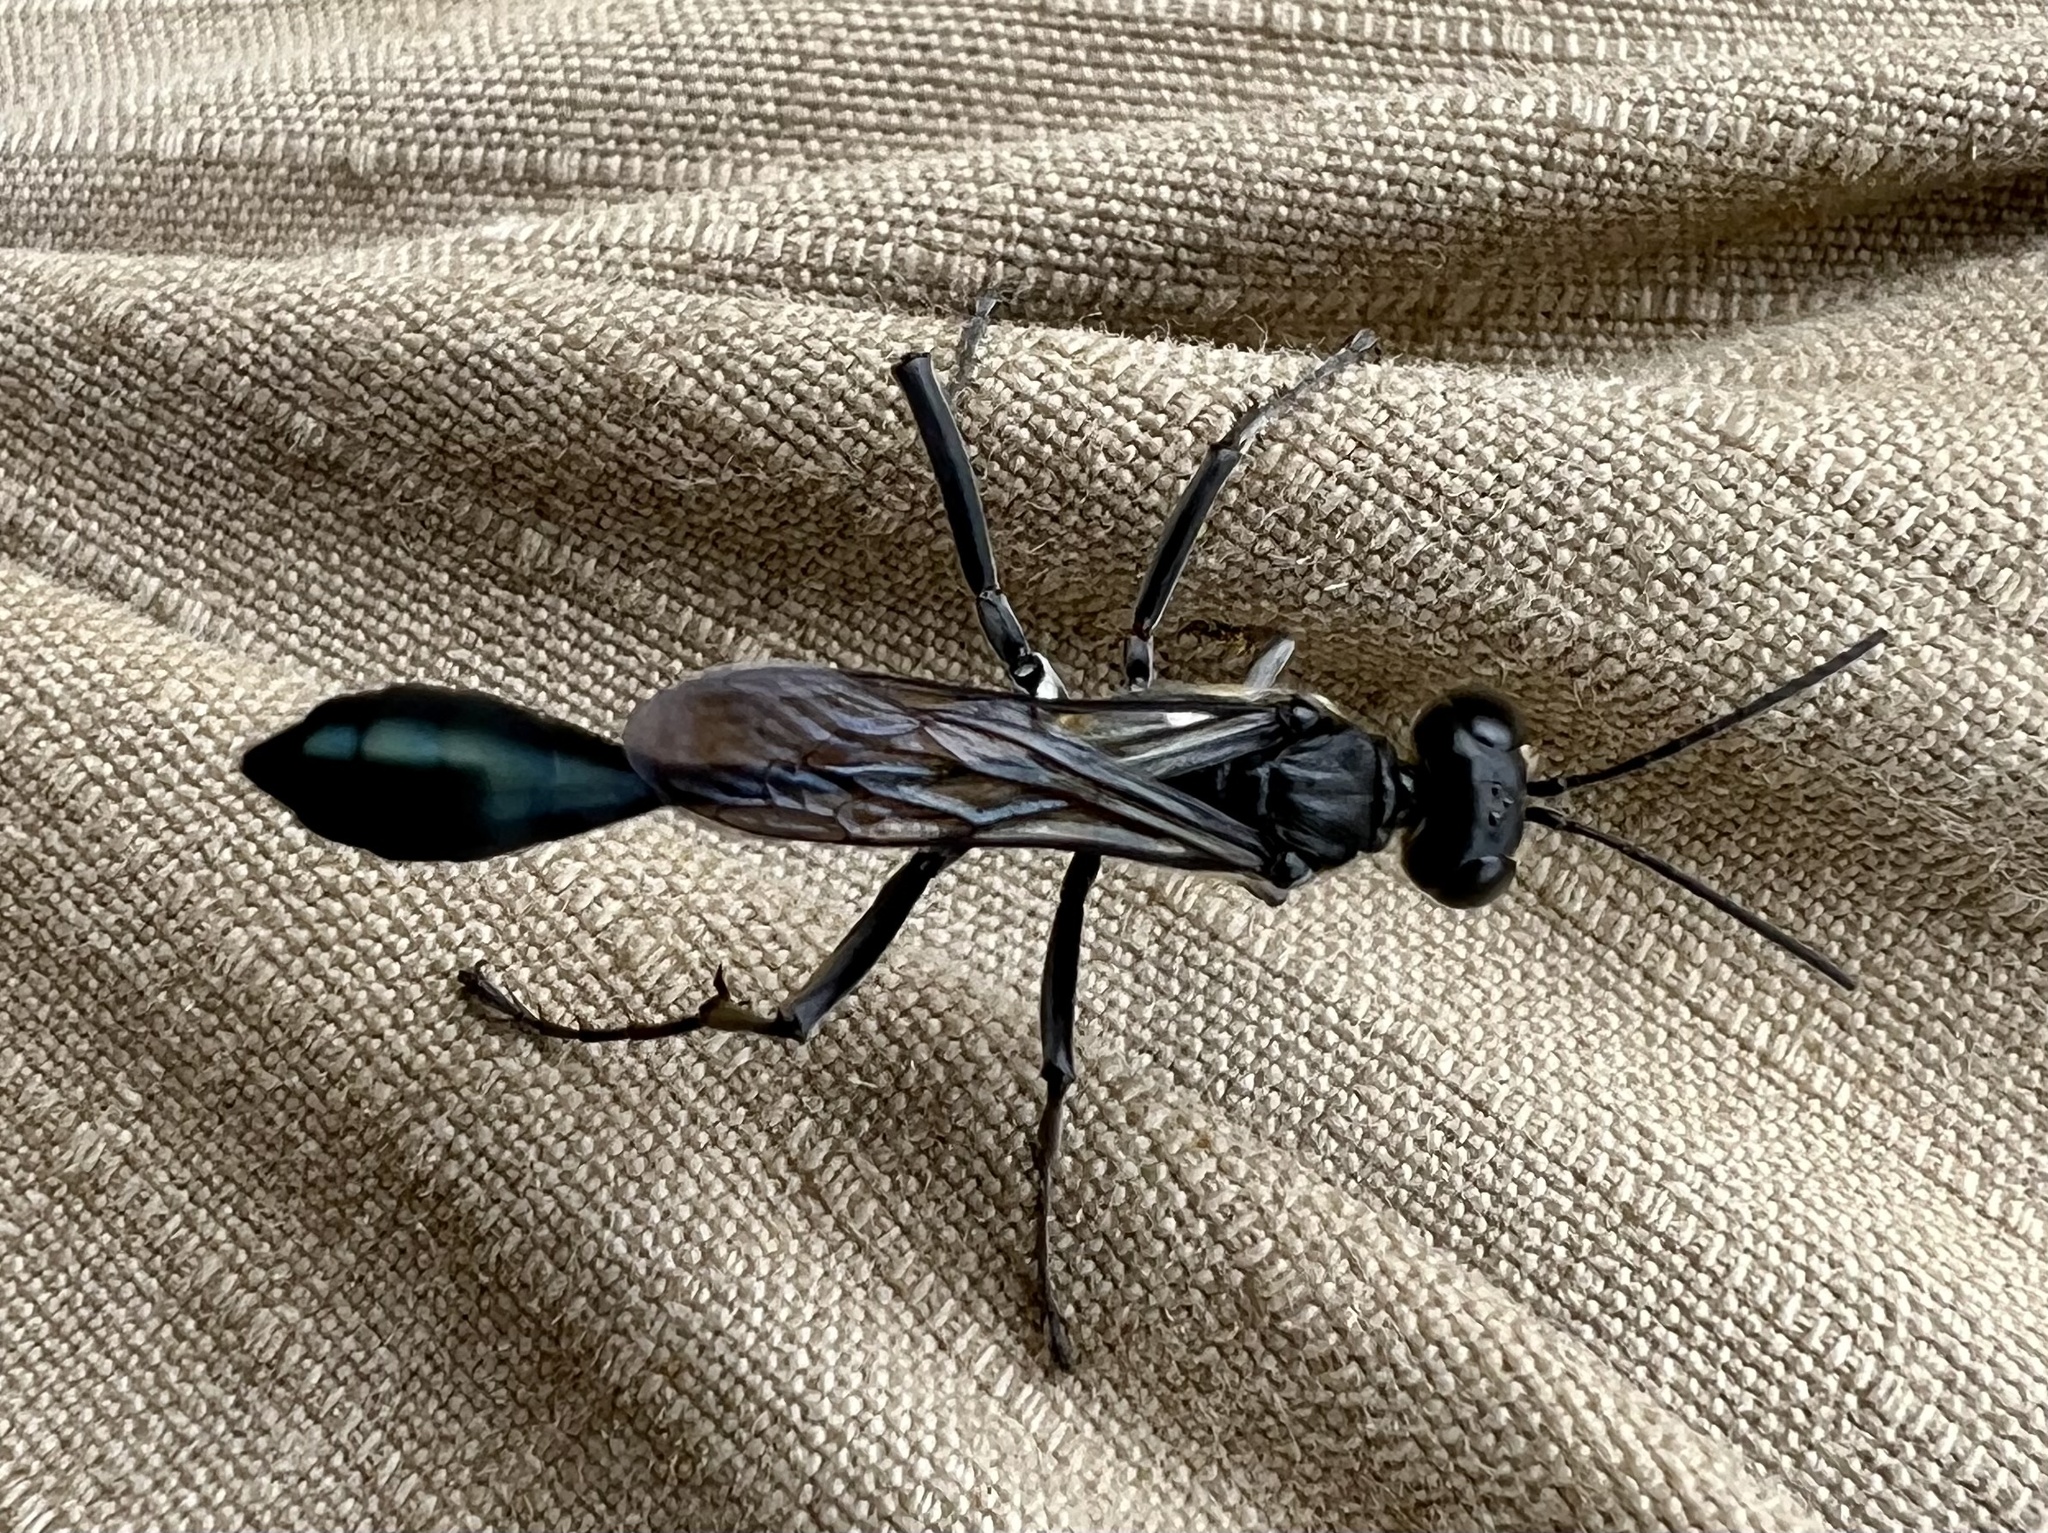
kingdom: Animalia
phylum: Arthropoda
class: Insecta
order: Hymenoptera
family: Sphecidae
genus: Eremnophila
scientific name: Eremnophila aureonotata
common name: Gold-marked thread-waisted wasp
